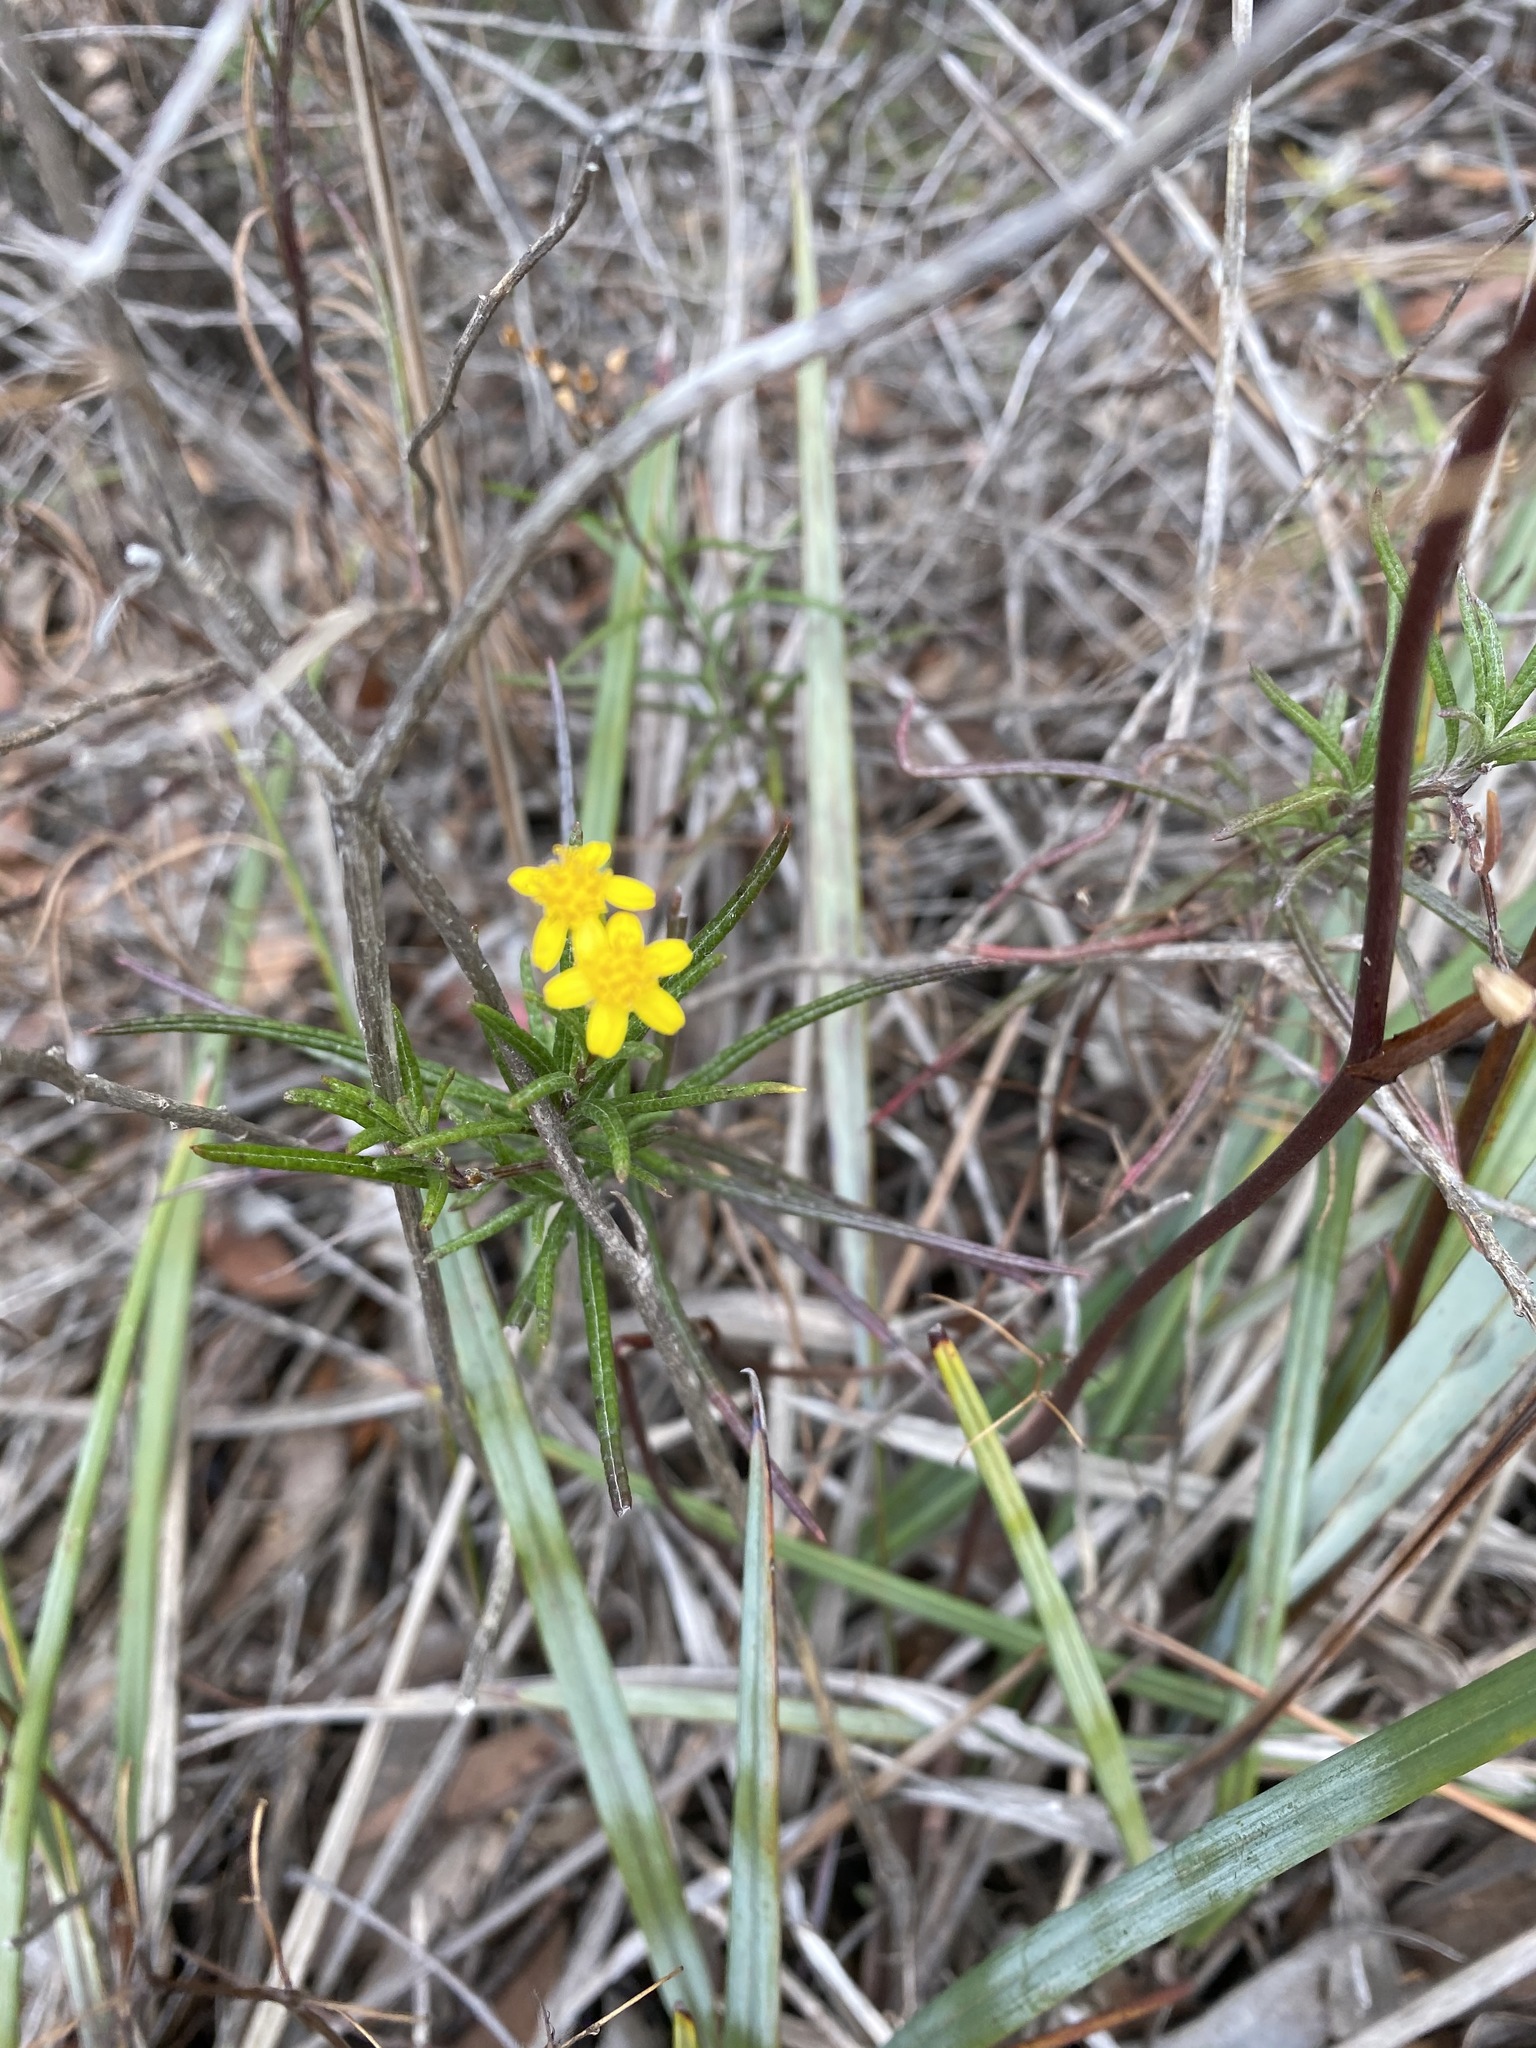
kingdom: Plantae
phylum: Tracheophyta
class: Magnoliopsida
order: Asterales
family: Asteraceae
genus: Senecio
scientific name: Senecio linearifolius
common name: Fireweed groundsel
